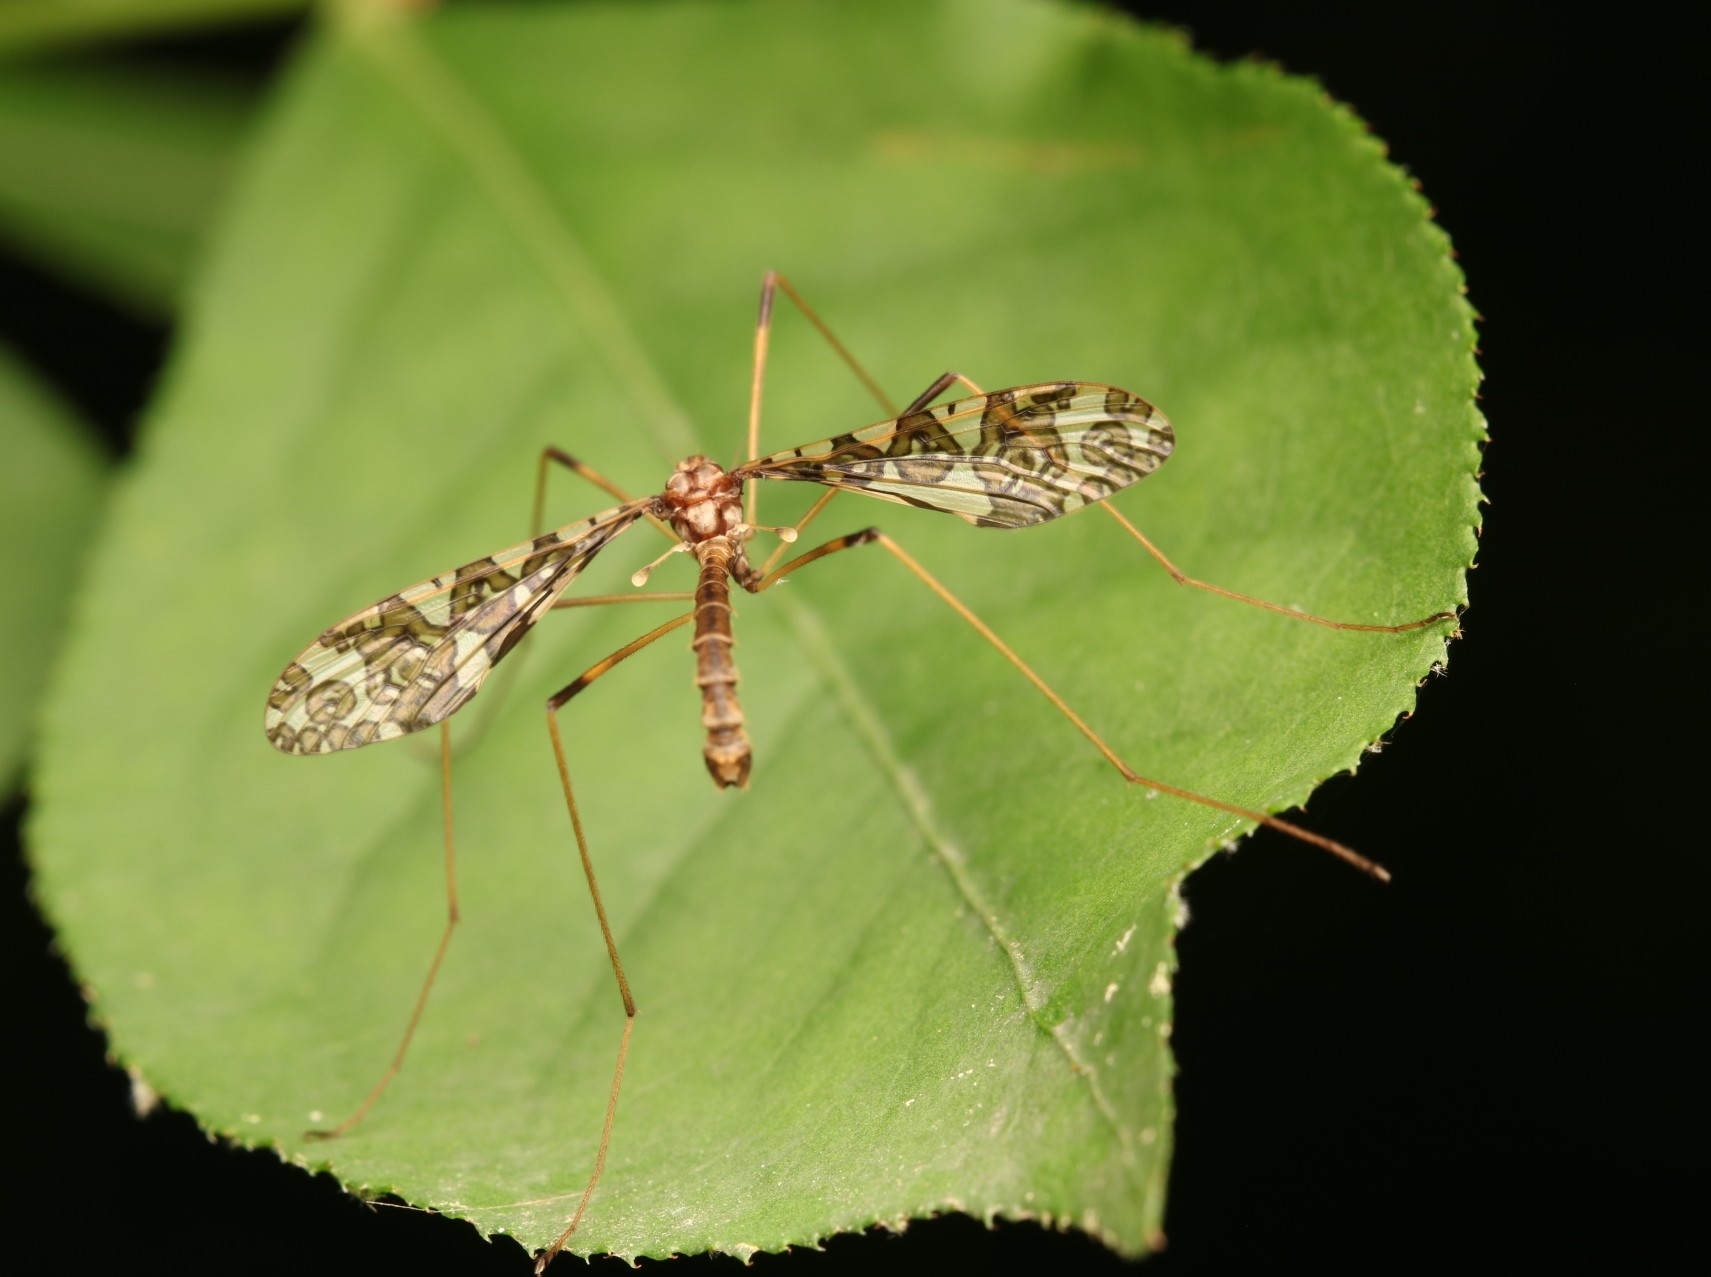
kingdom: Animalia
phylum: Arthropoda
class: Insecta
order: Diptera
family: Limoniidae
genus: Epiphragma
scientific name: Epiphragma fasciapenne
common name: Band-winged crane fly
